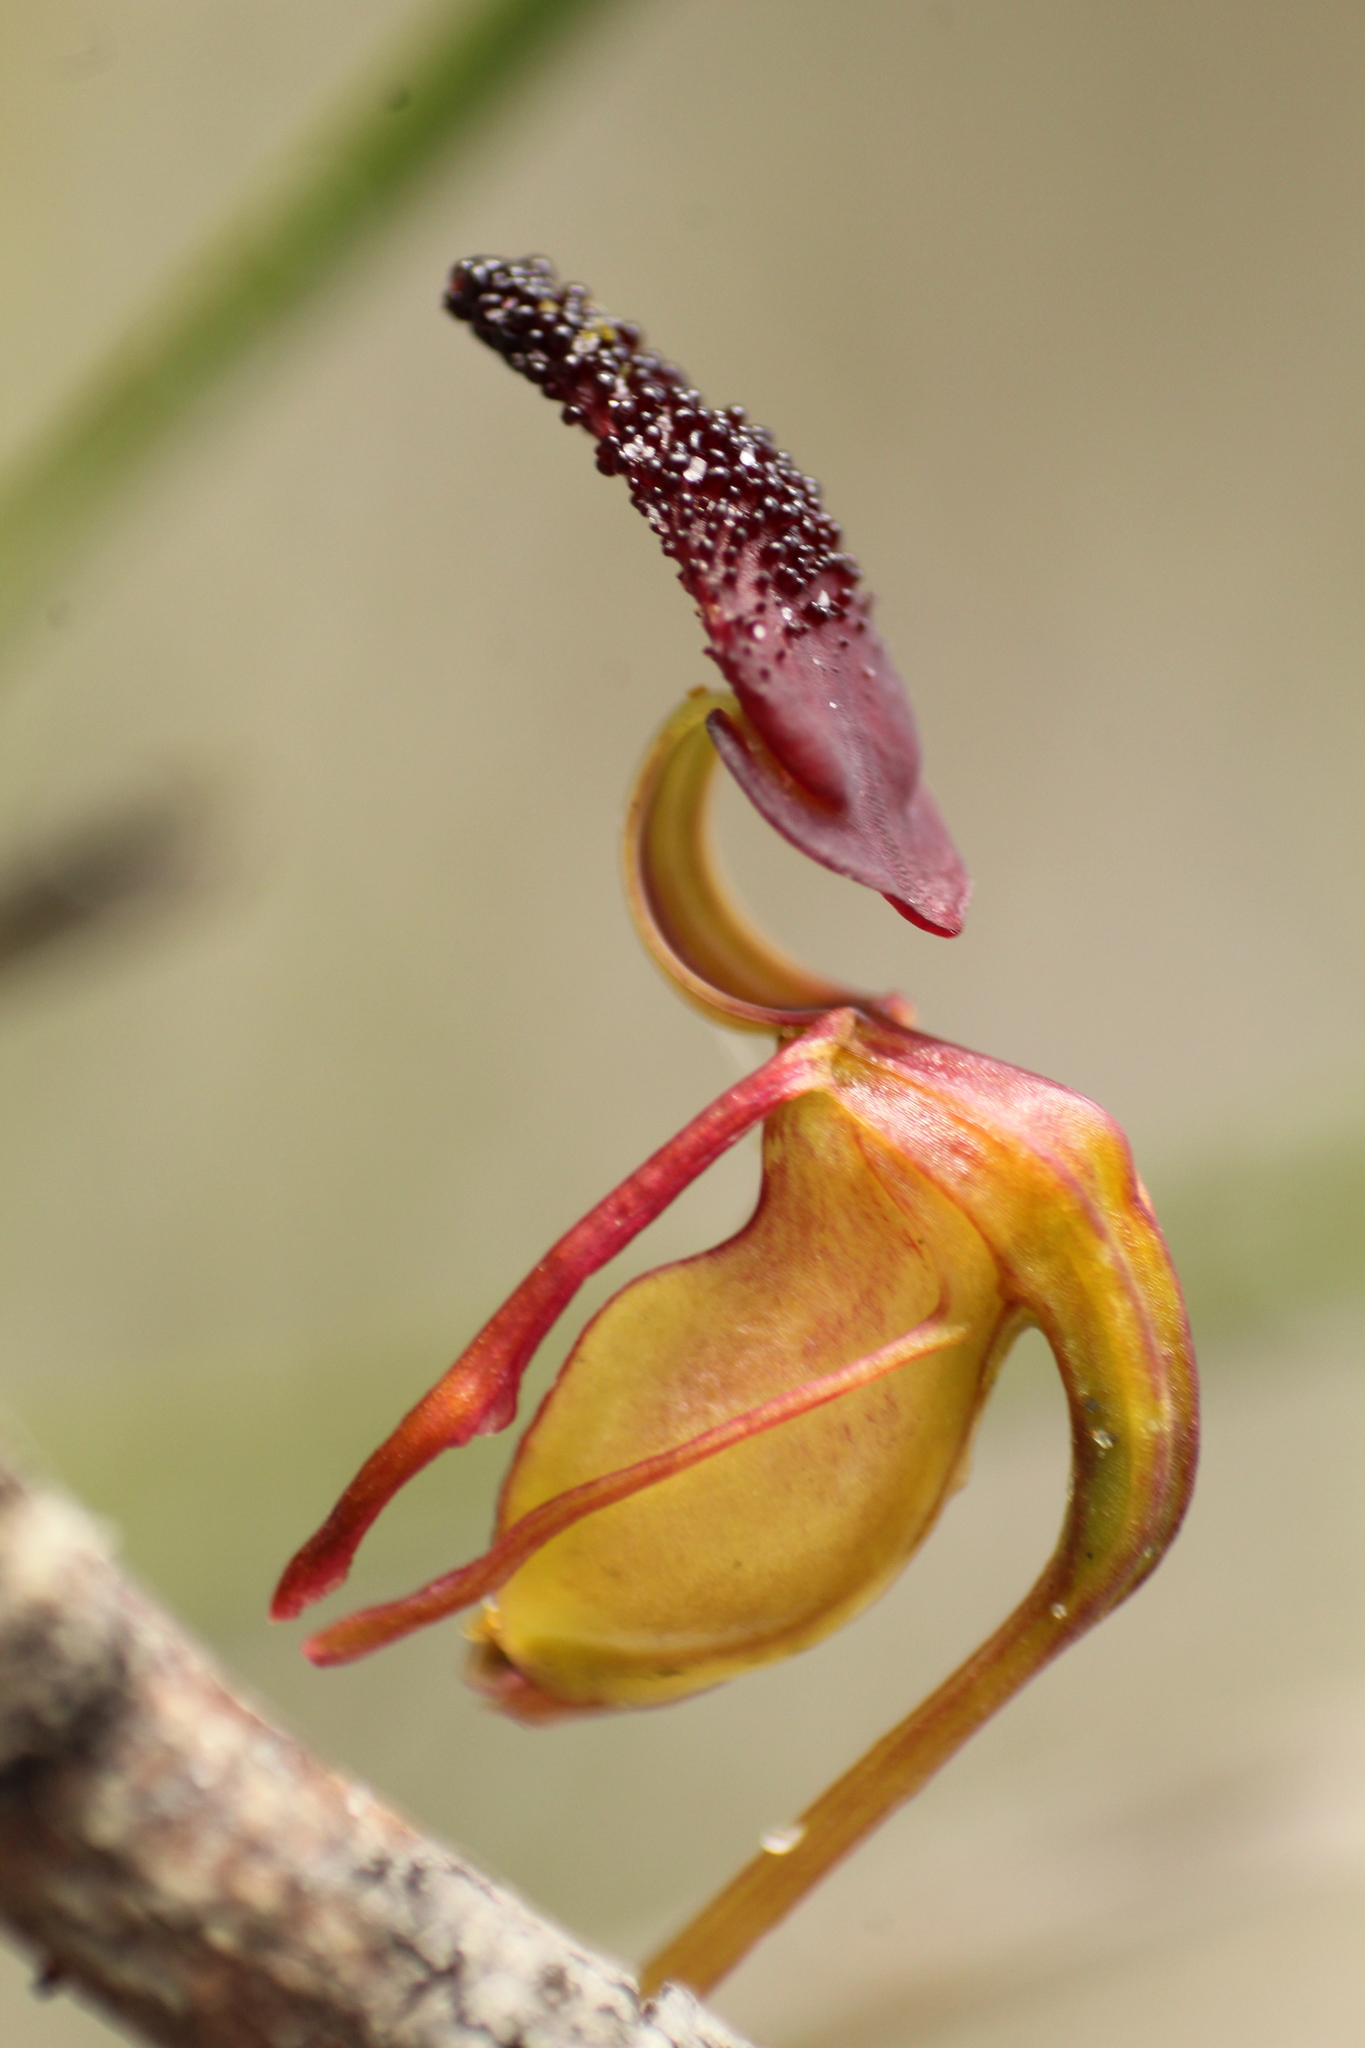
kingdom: Plantae
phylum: Tracheophyta
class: Liliopsida
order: Asparagales
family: Orchidaceae
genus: Caleana
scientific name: Caleana nigrita
